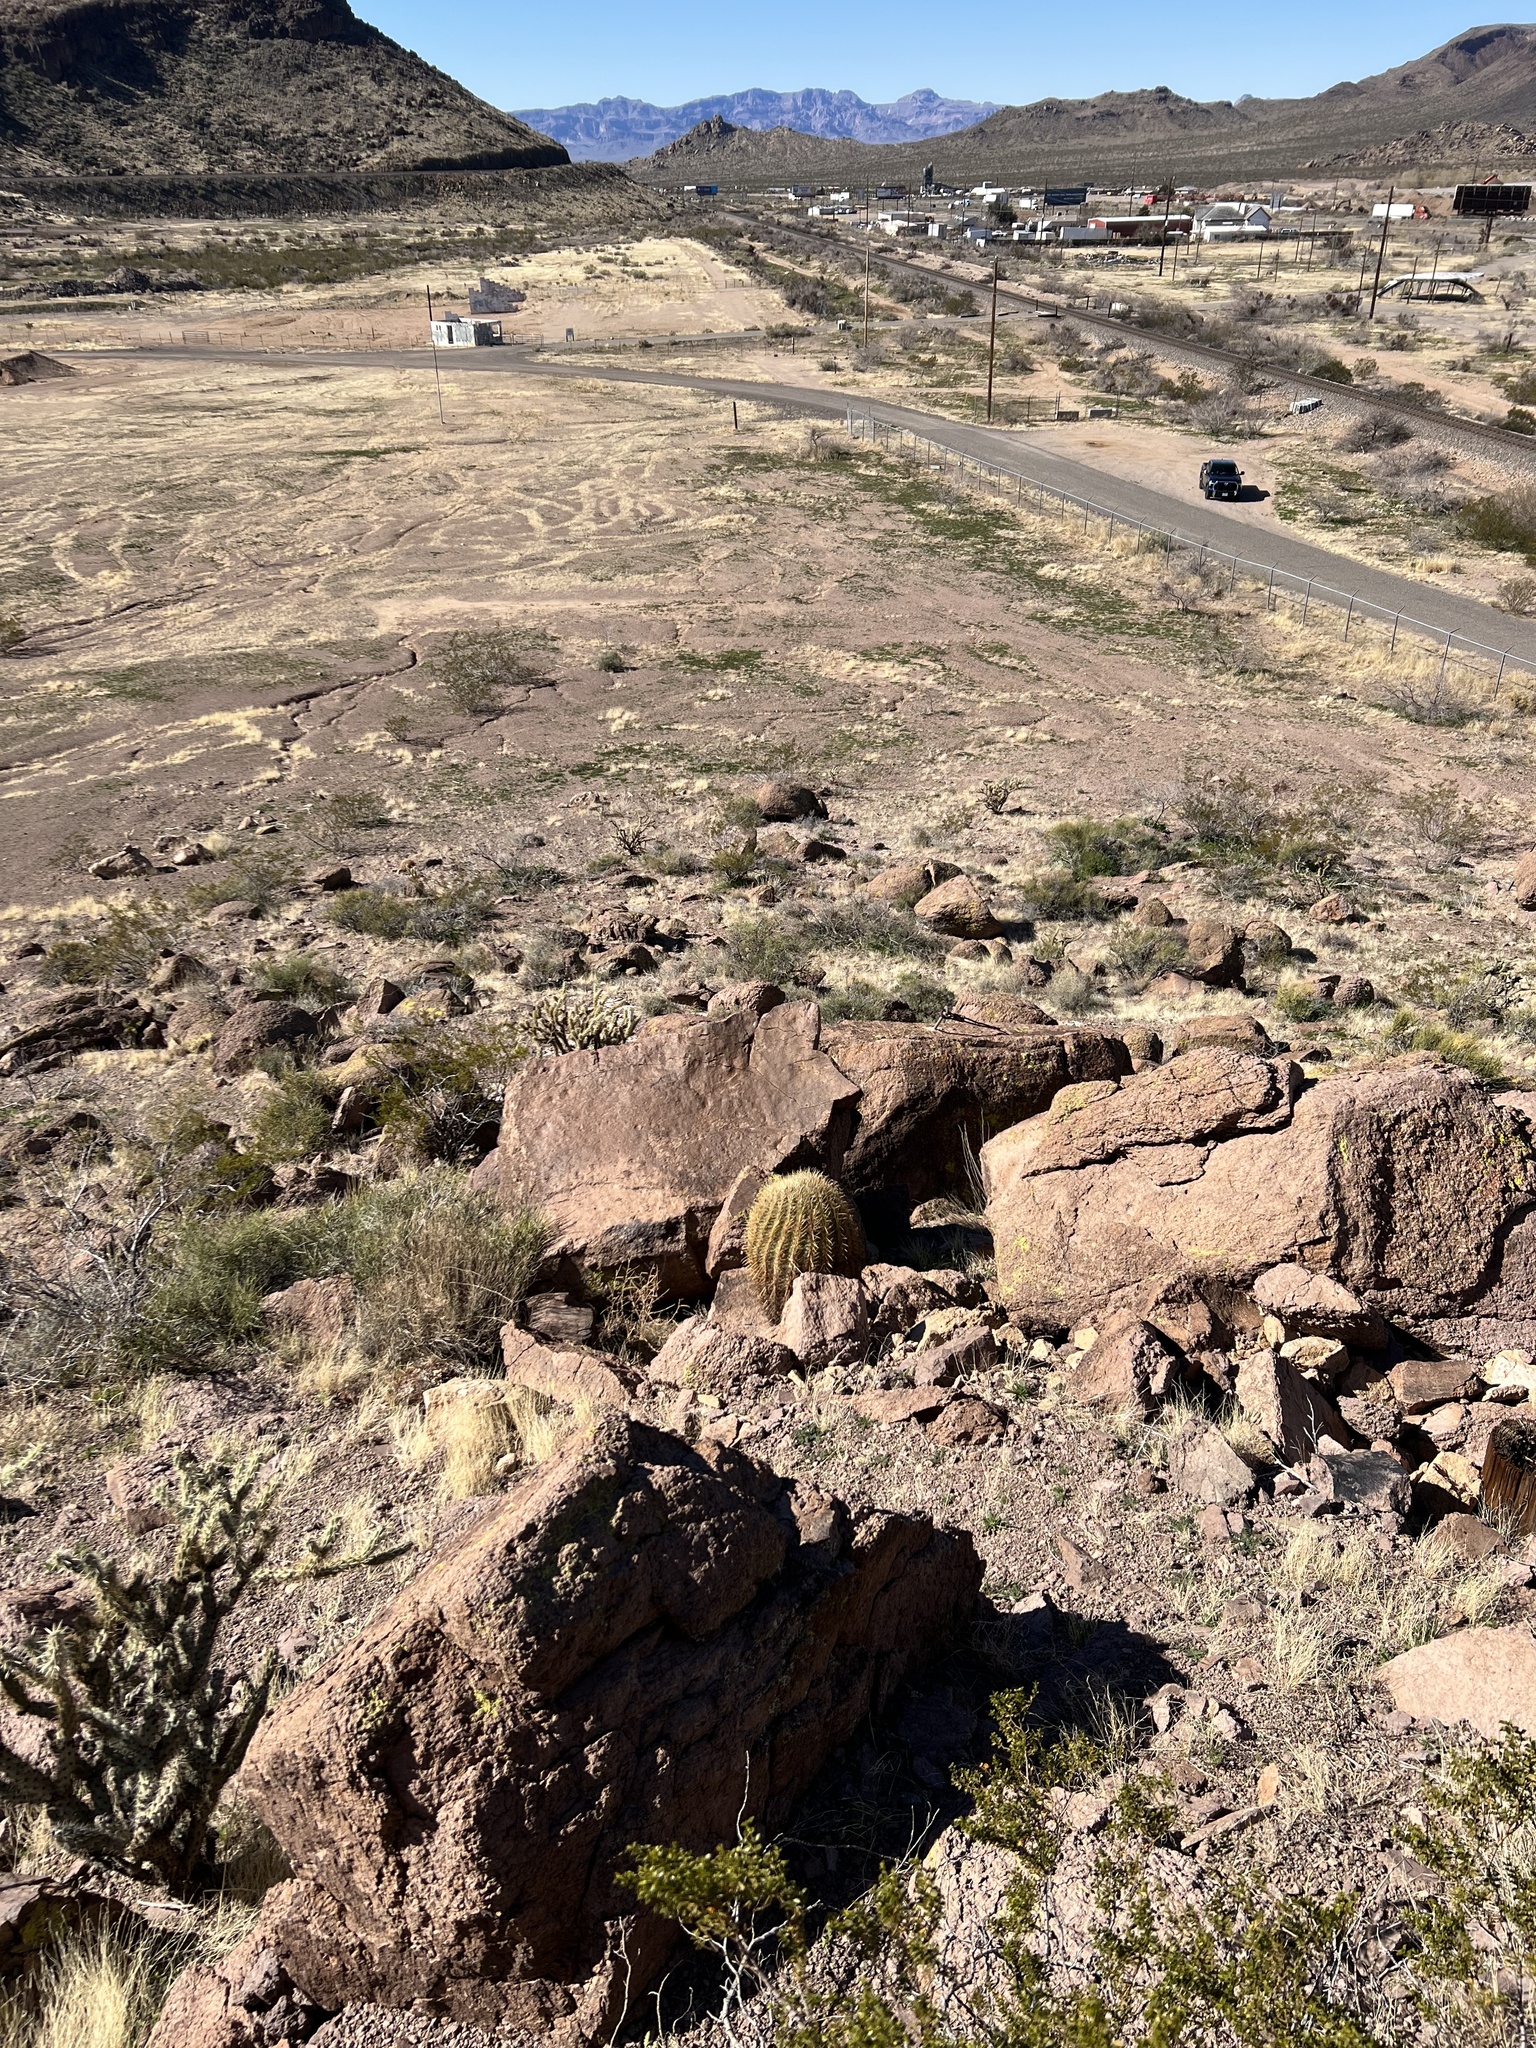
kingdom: Plantae
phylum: Tracheophyta
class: Magnoliopsida
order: Caryophyllales
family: Cactaceae
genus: Ferocactus
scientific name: Ferocactus cylindraceus
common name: California barrel cactus
